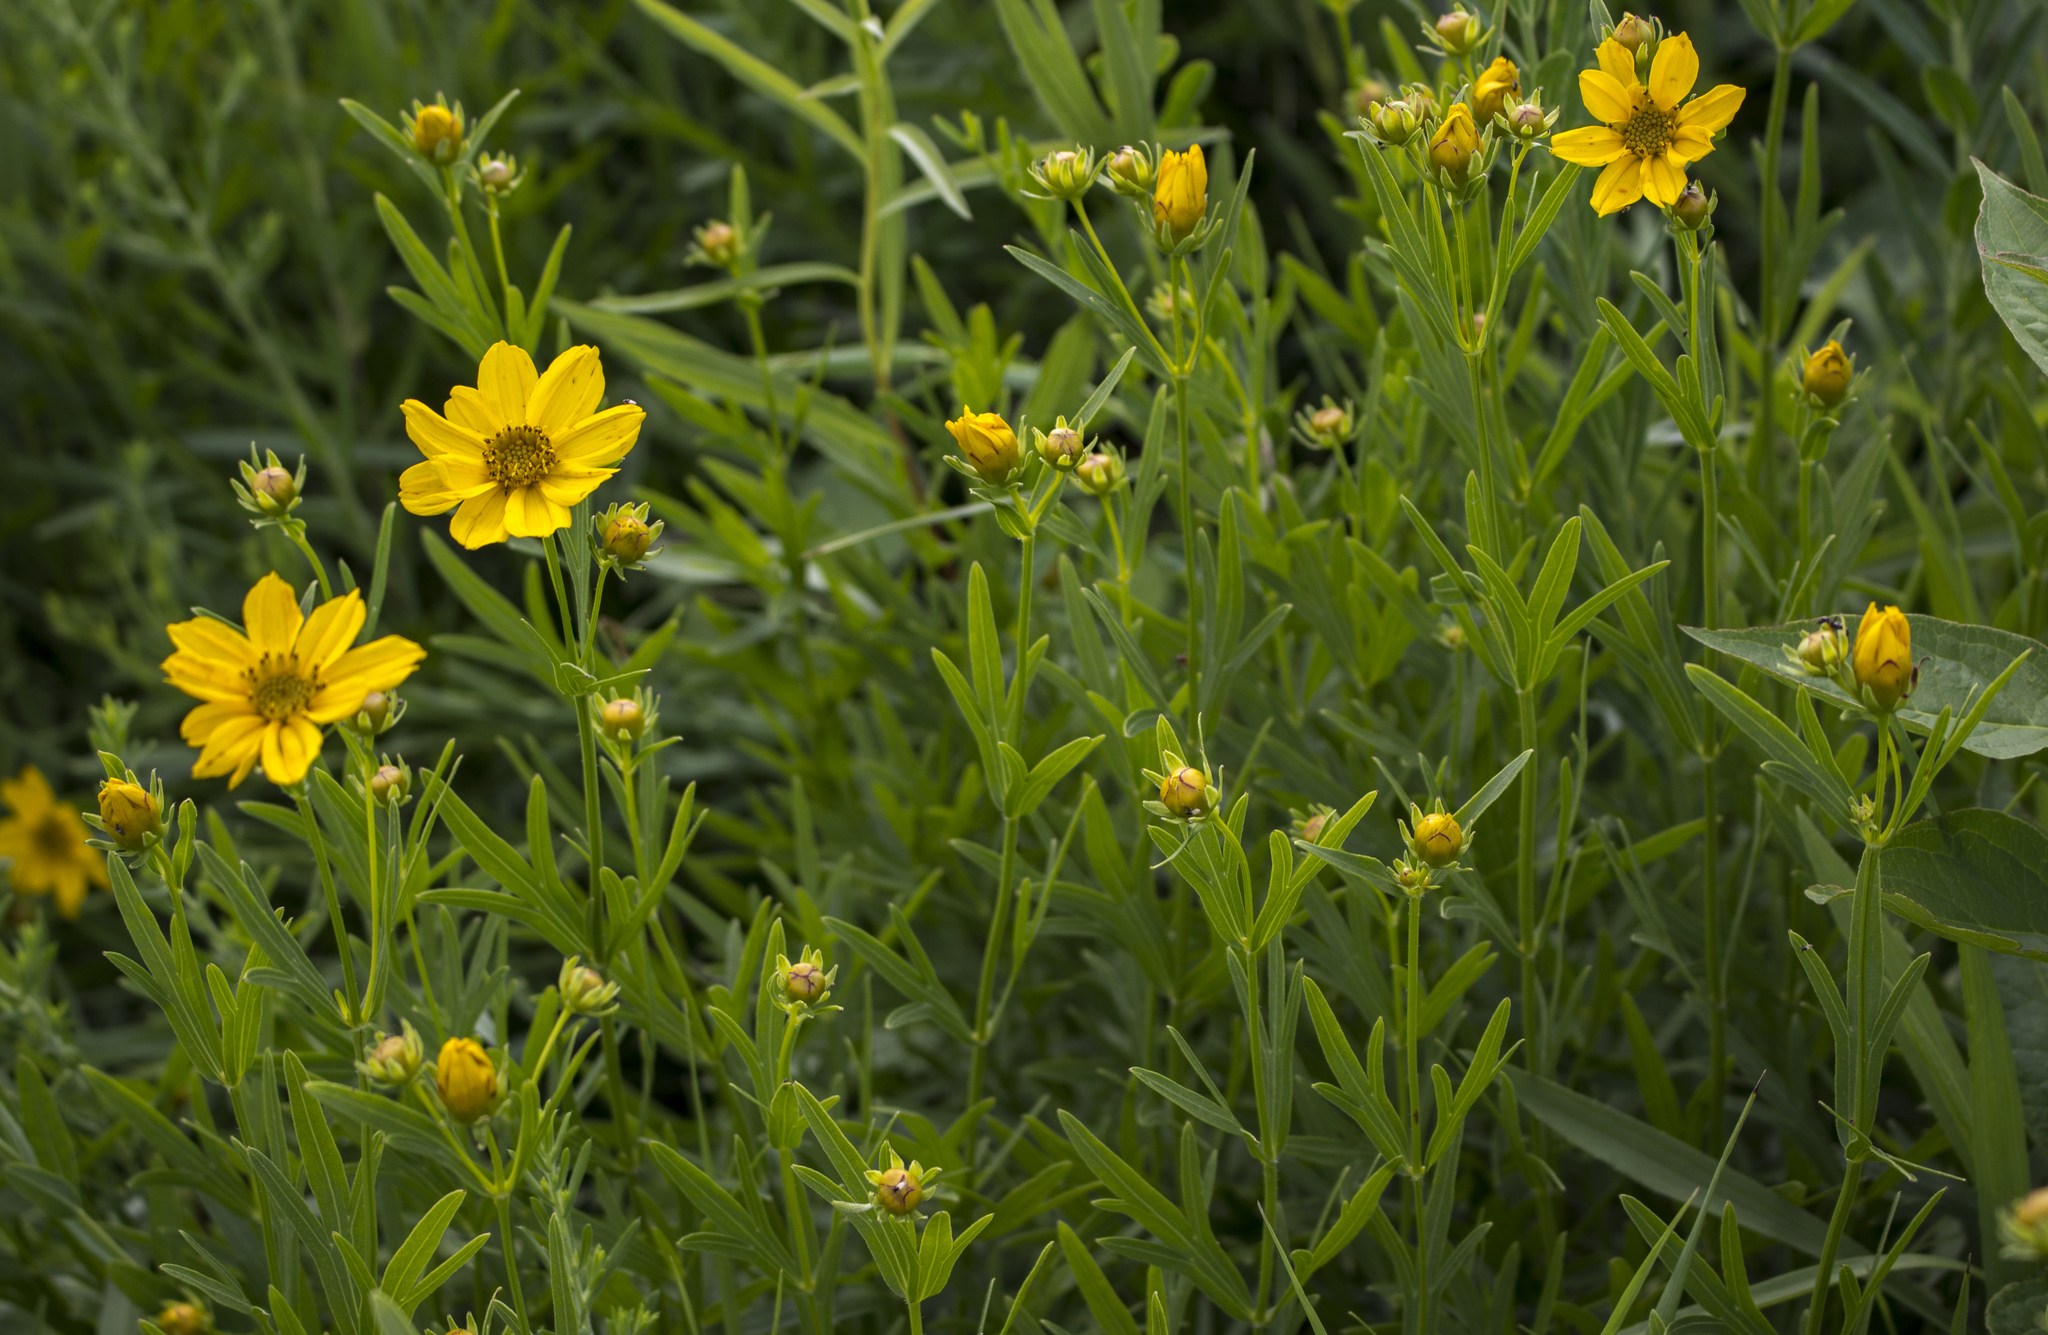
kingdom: Plantae
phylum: Tracheophyta
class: Magnoliopsida
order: Asterales
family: Asteraceae
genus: Coreopsis
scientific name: Coreopsis palmata
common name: Prairie coreopsis
